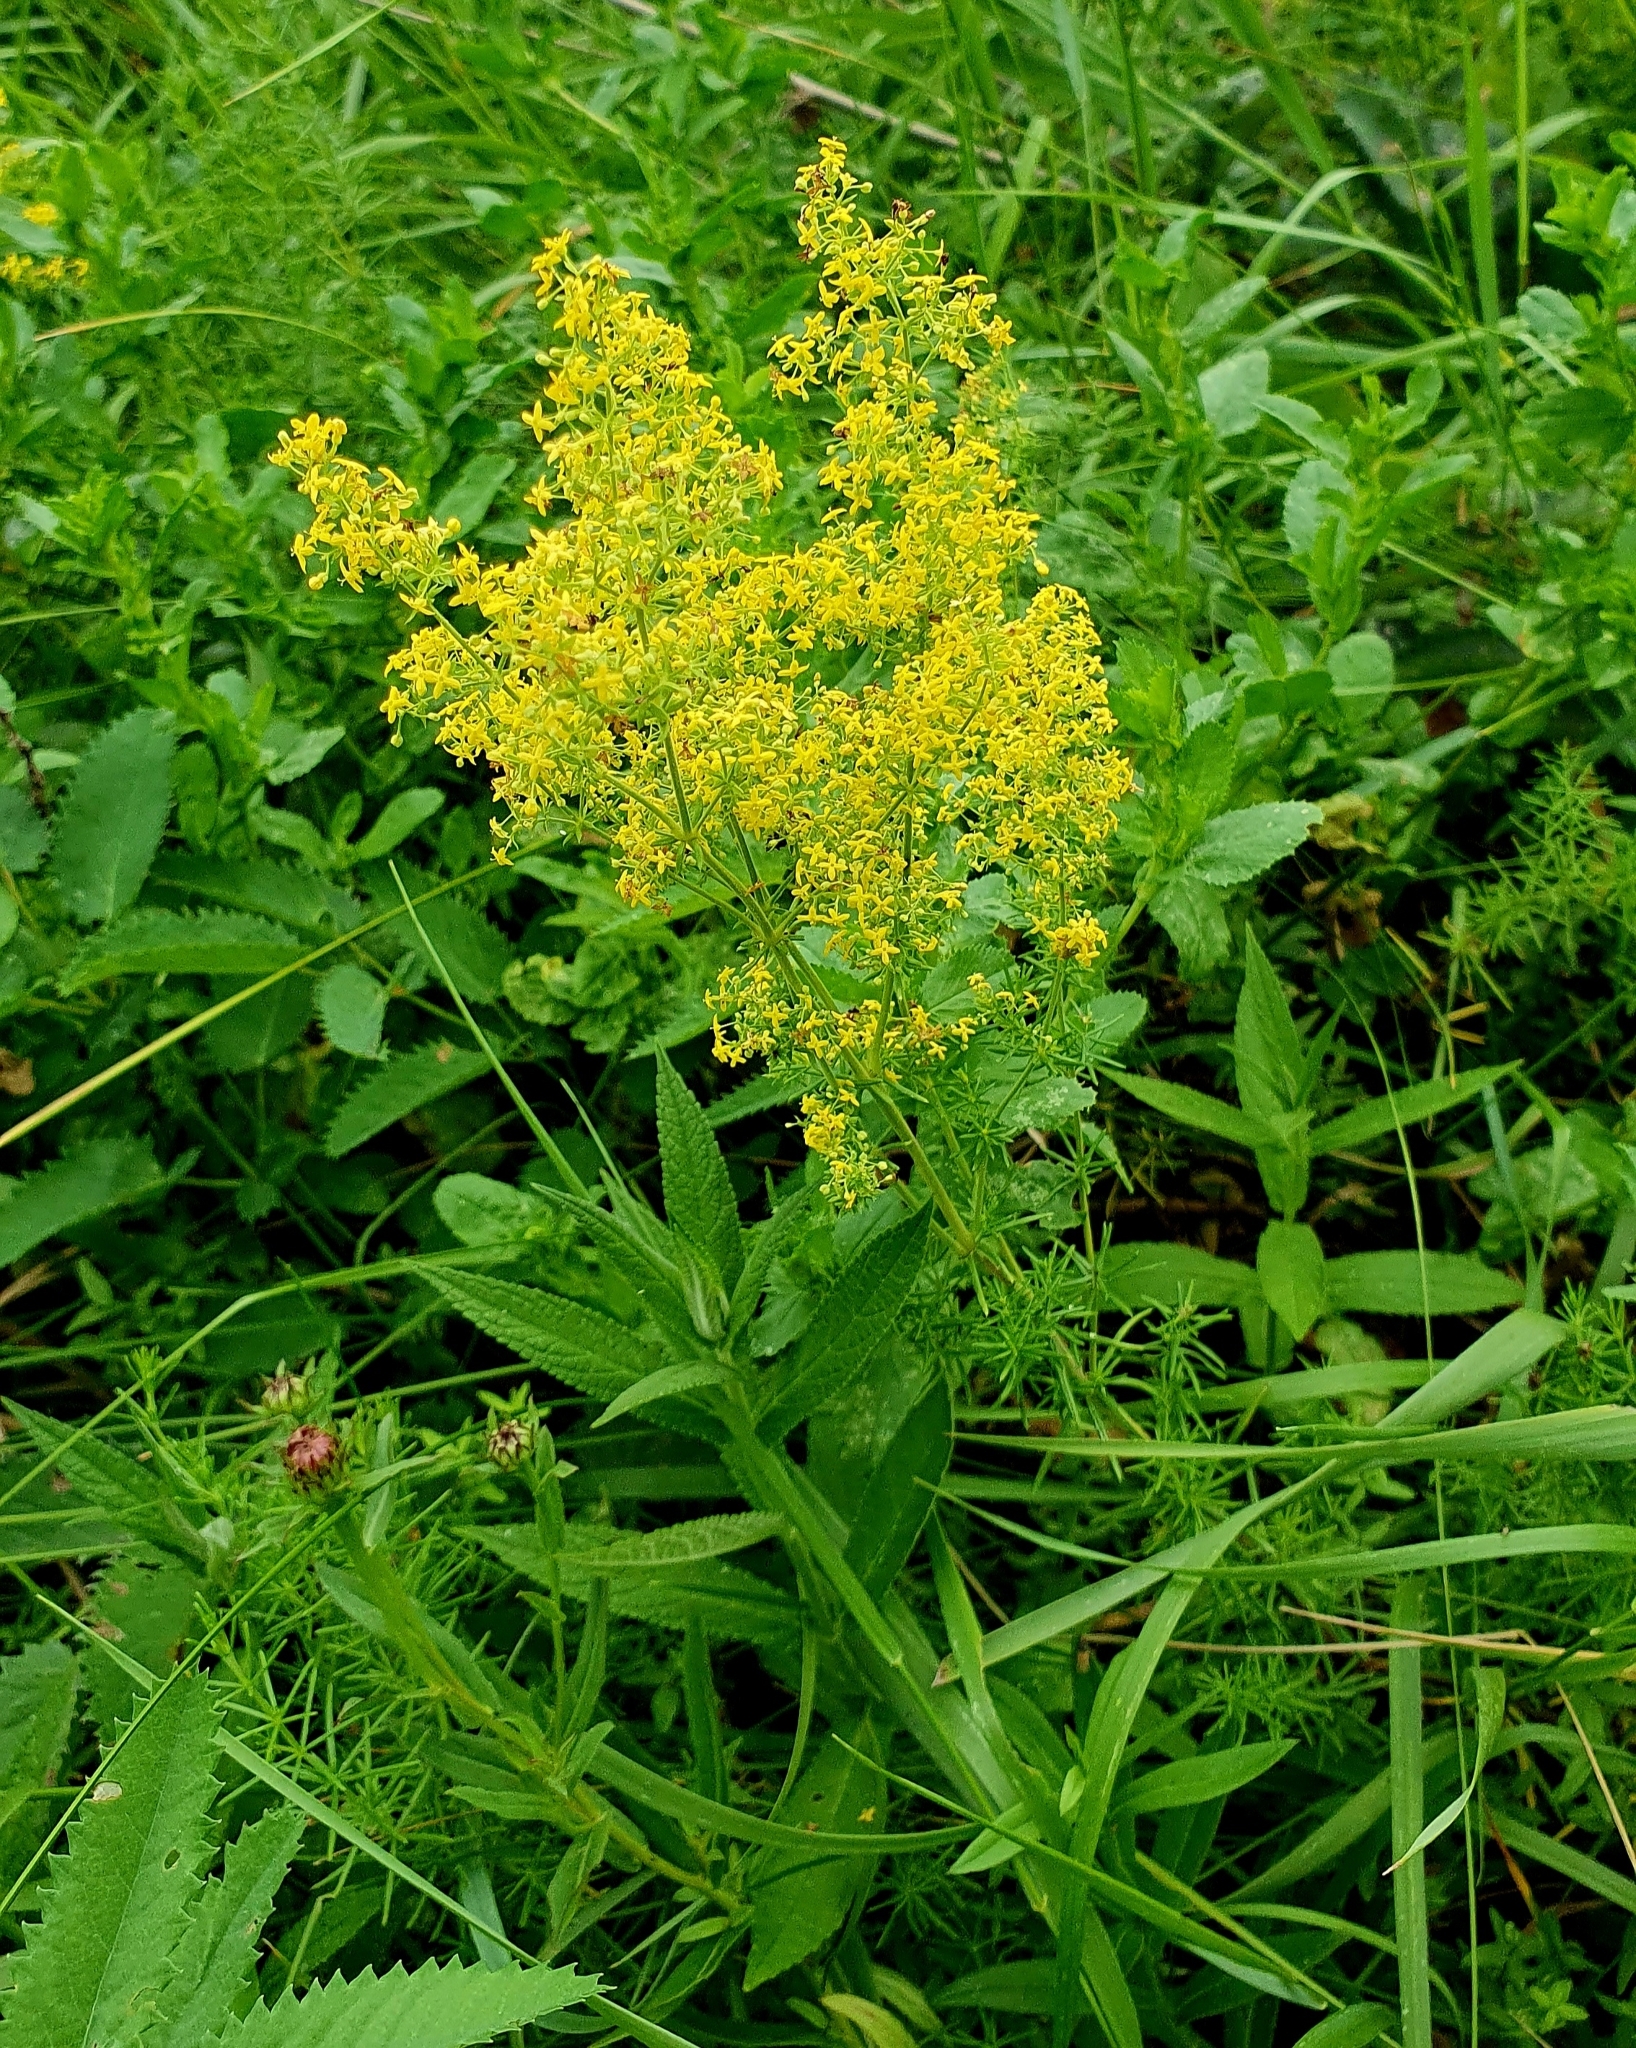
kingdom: Plantae
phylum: Tracheophyta
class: Magnoliopsida
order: Gentianales
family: Rubiaceae
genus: Galium
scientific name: Galium verum
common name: Lady's bedstraw
